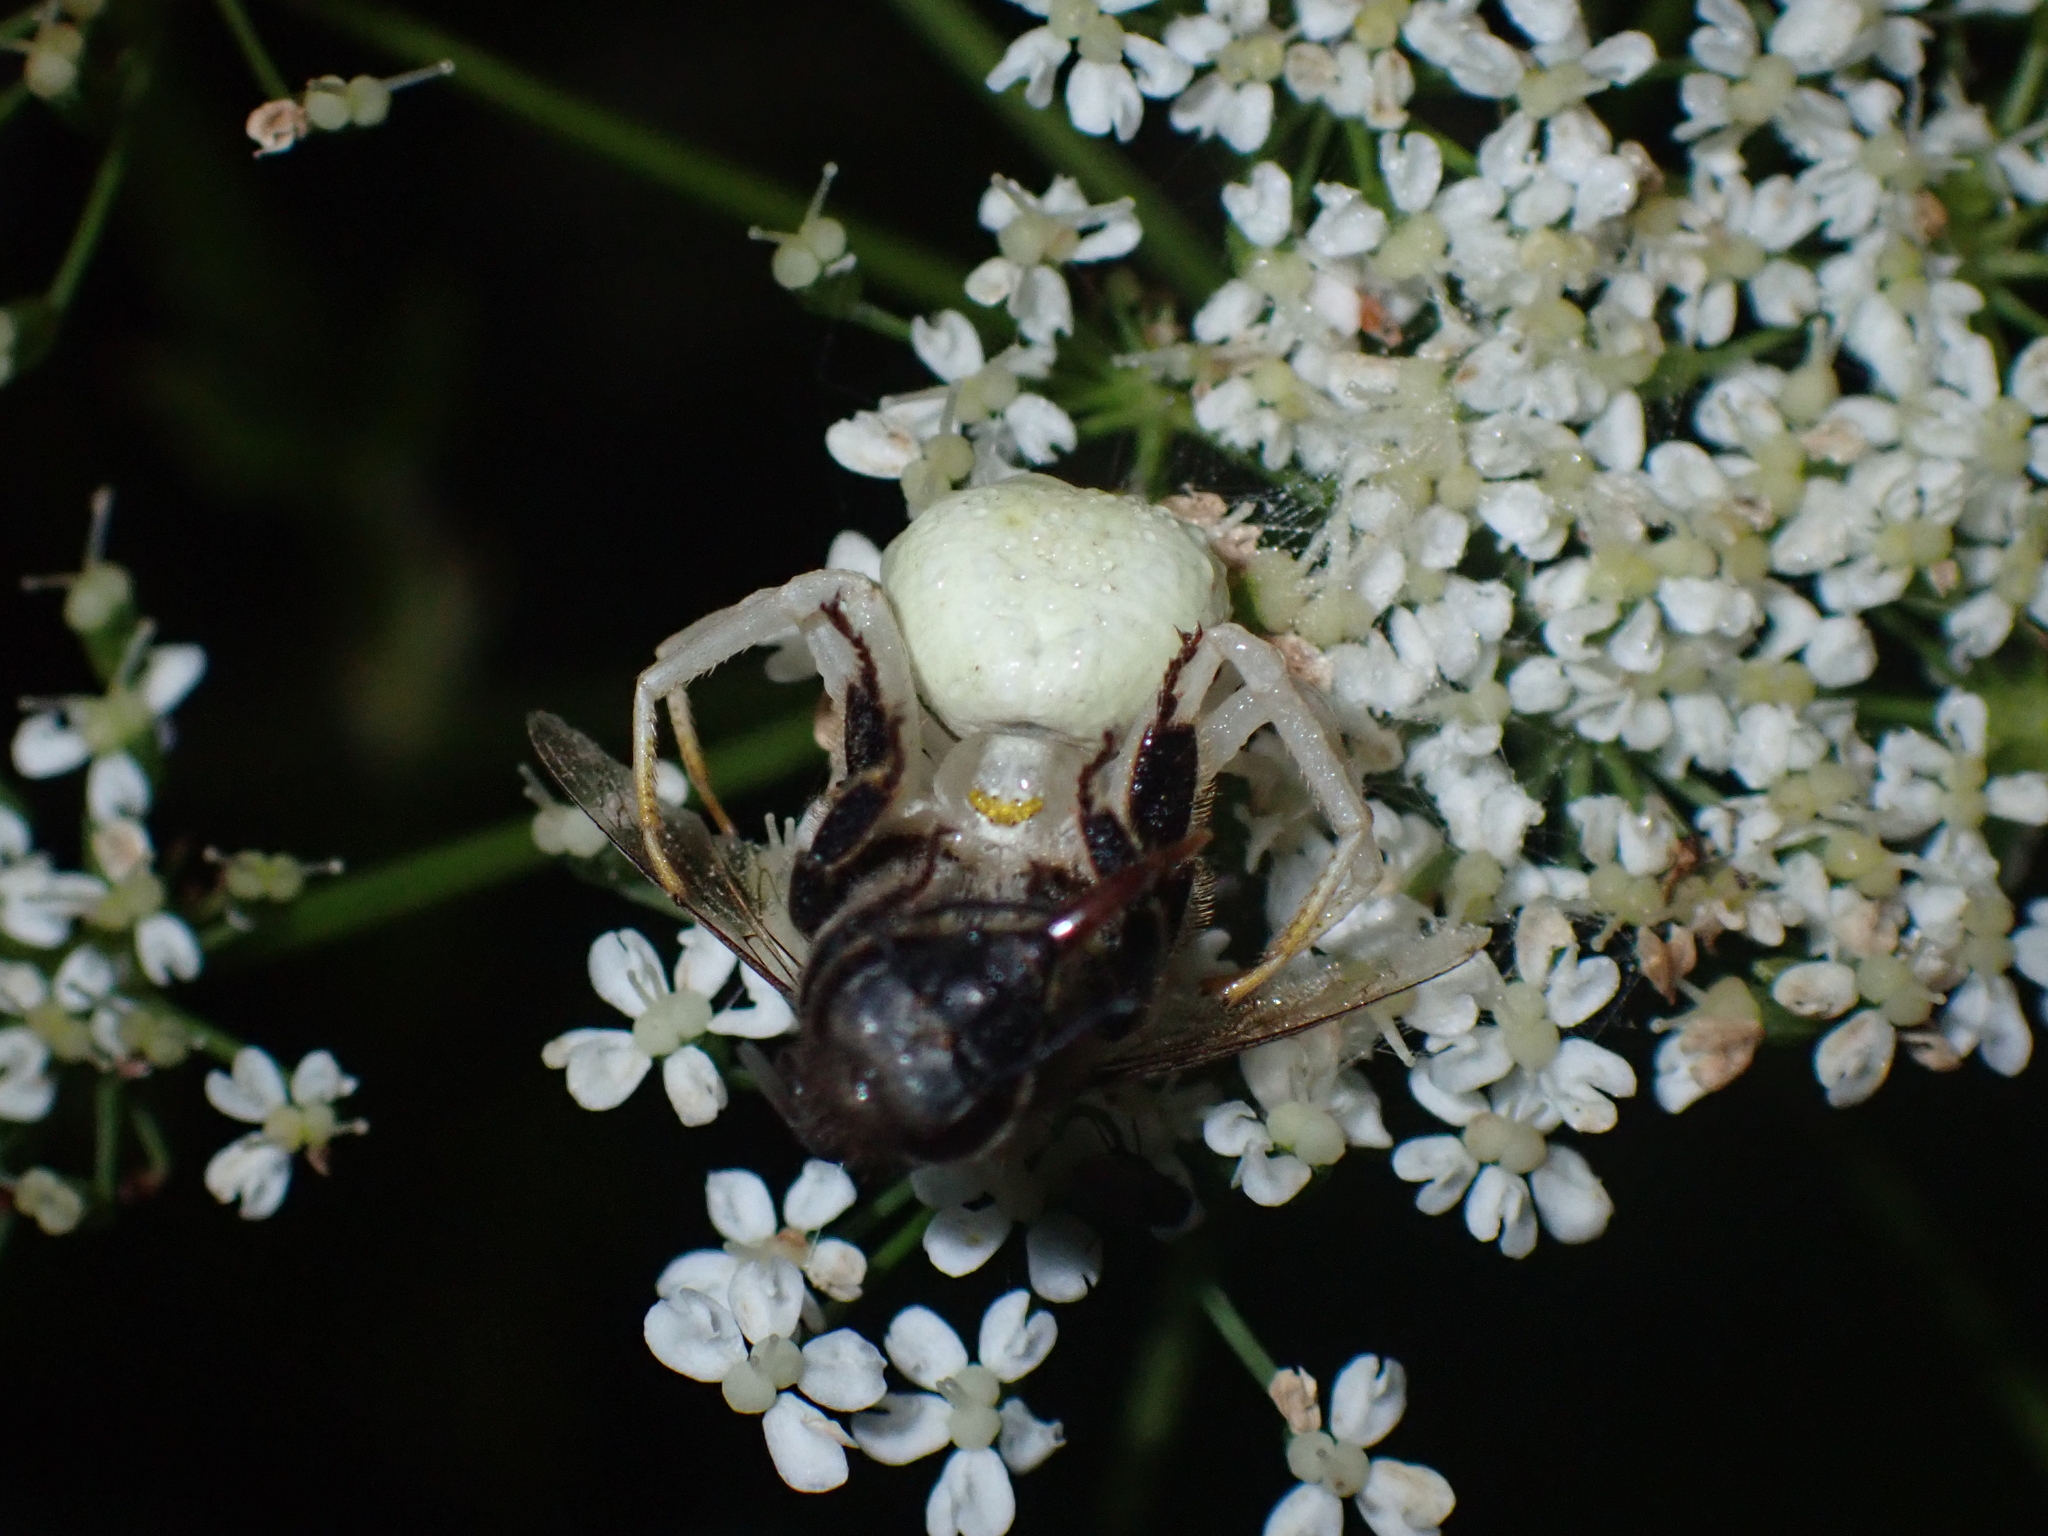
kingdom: Animalia
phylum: Arthropoda
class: Arachnida
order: Araneae
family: Thomisidae
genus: Misumena
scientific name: Misumena vatia
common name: Goldenrod crab spider
